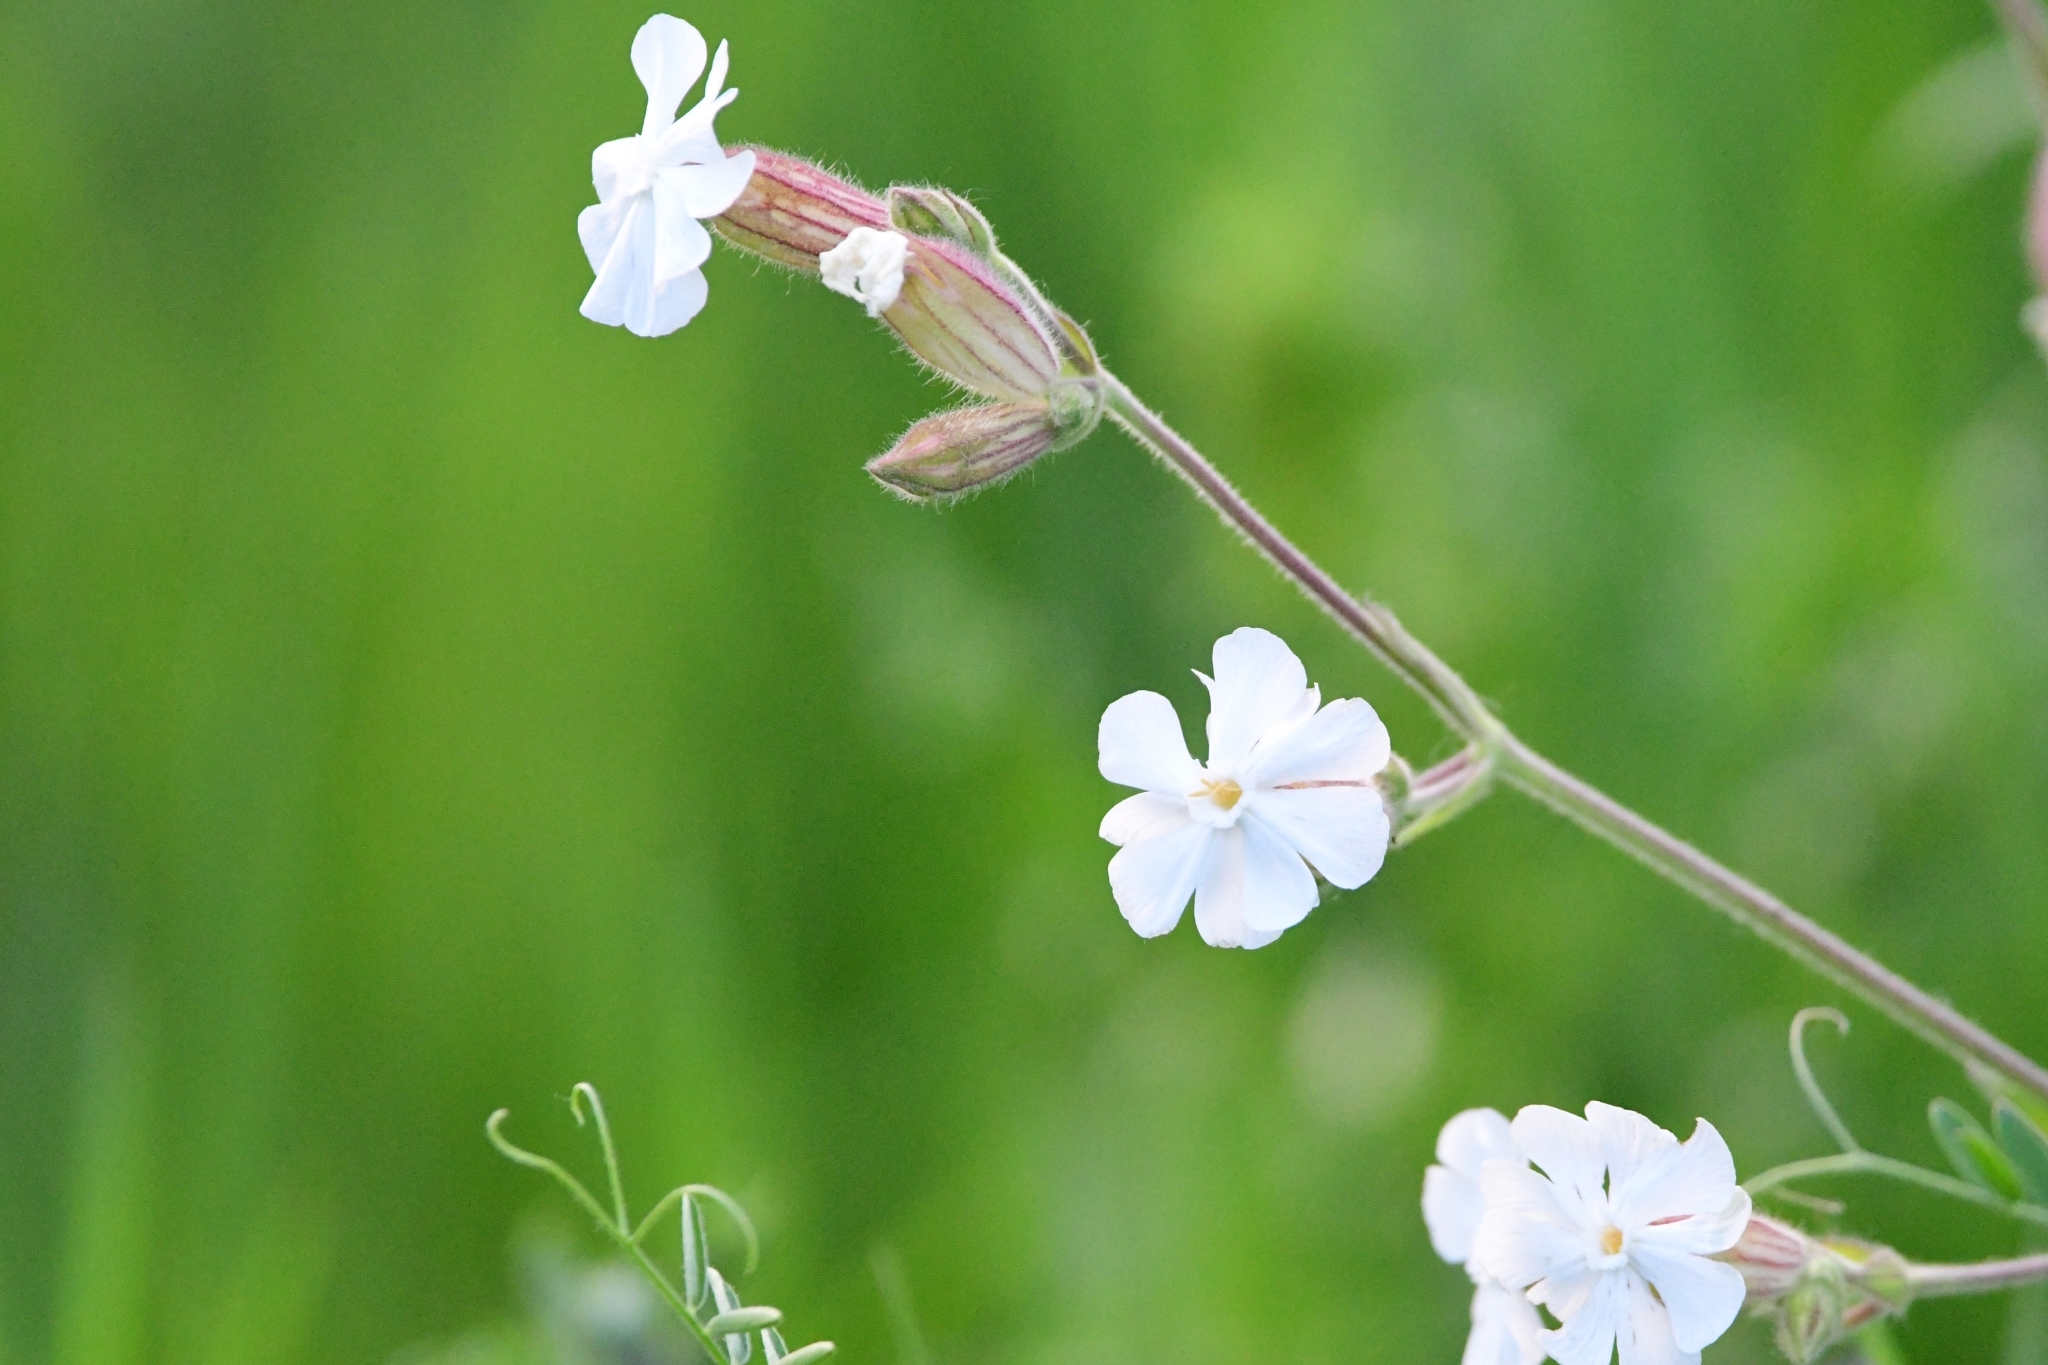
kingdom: Plantae
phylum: Tracheophyta
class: Magnoliopsida
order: Caryophyllales
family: Caryophyllaceae
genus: Silene
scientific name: Silene latifolia
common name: White campion
